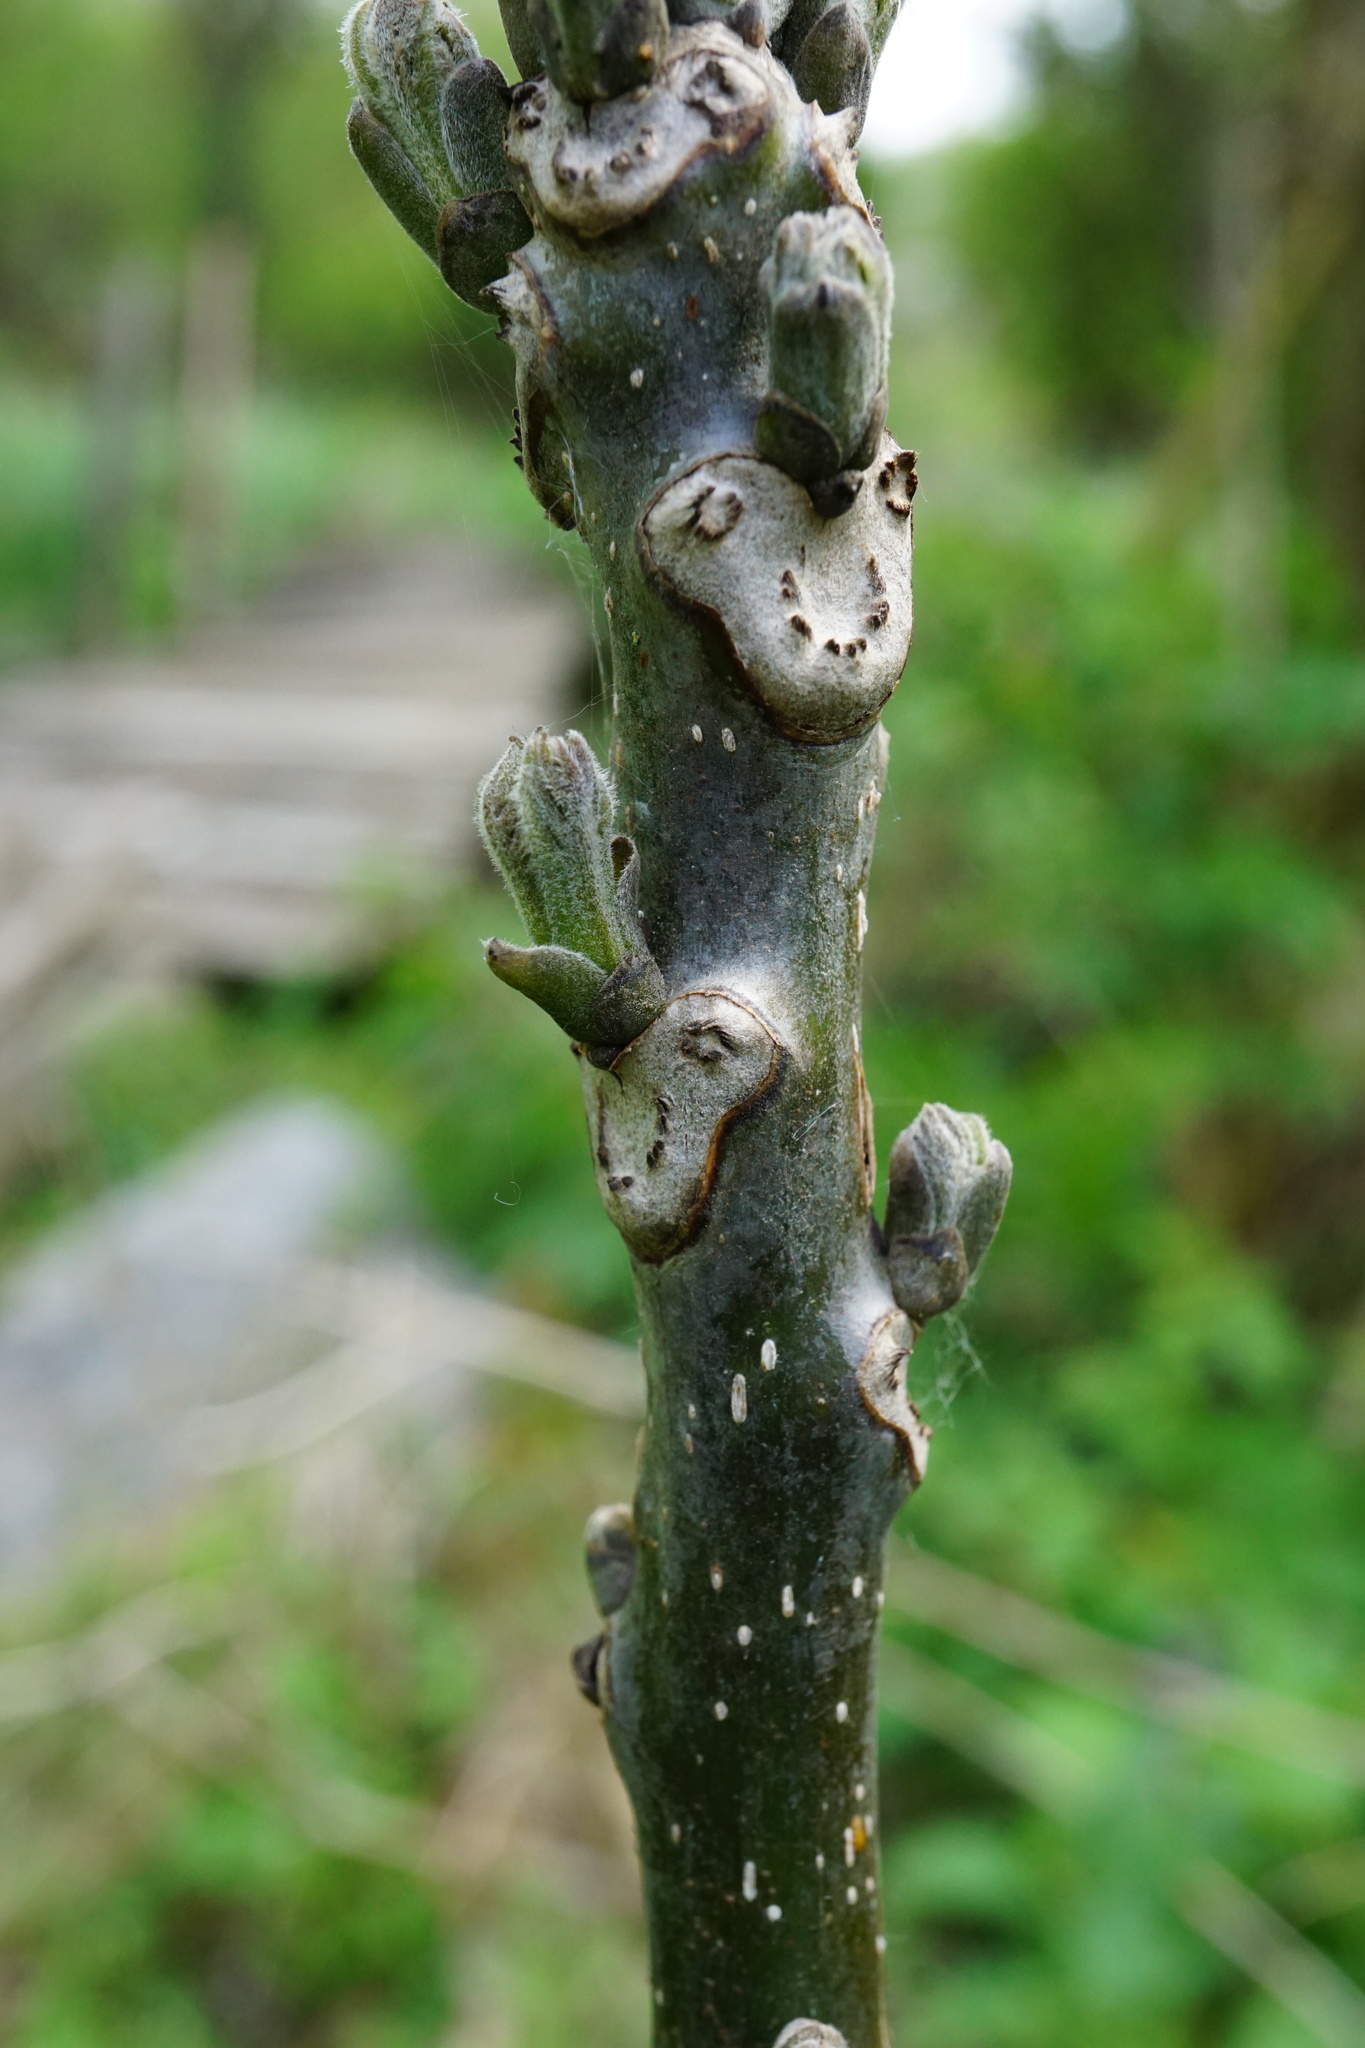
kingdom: Plantae
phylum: Tracheophyta
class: Magnoliopsida
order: Fagales
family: Juglandaceae
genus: Juglans
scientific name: Juglans regia
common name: Walnut
